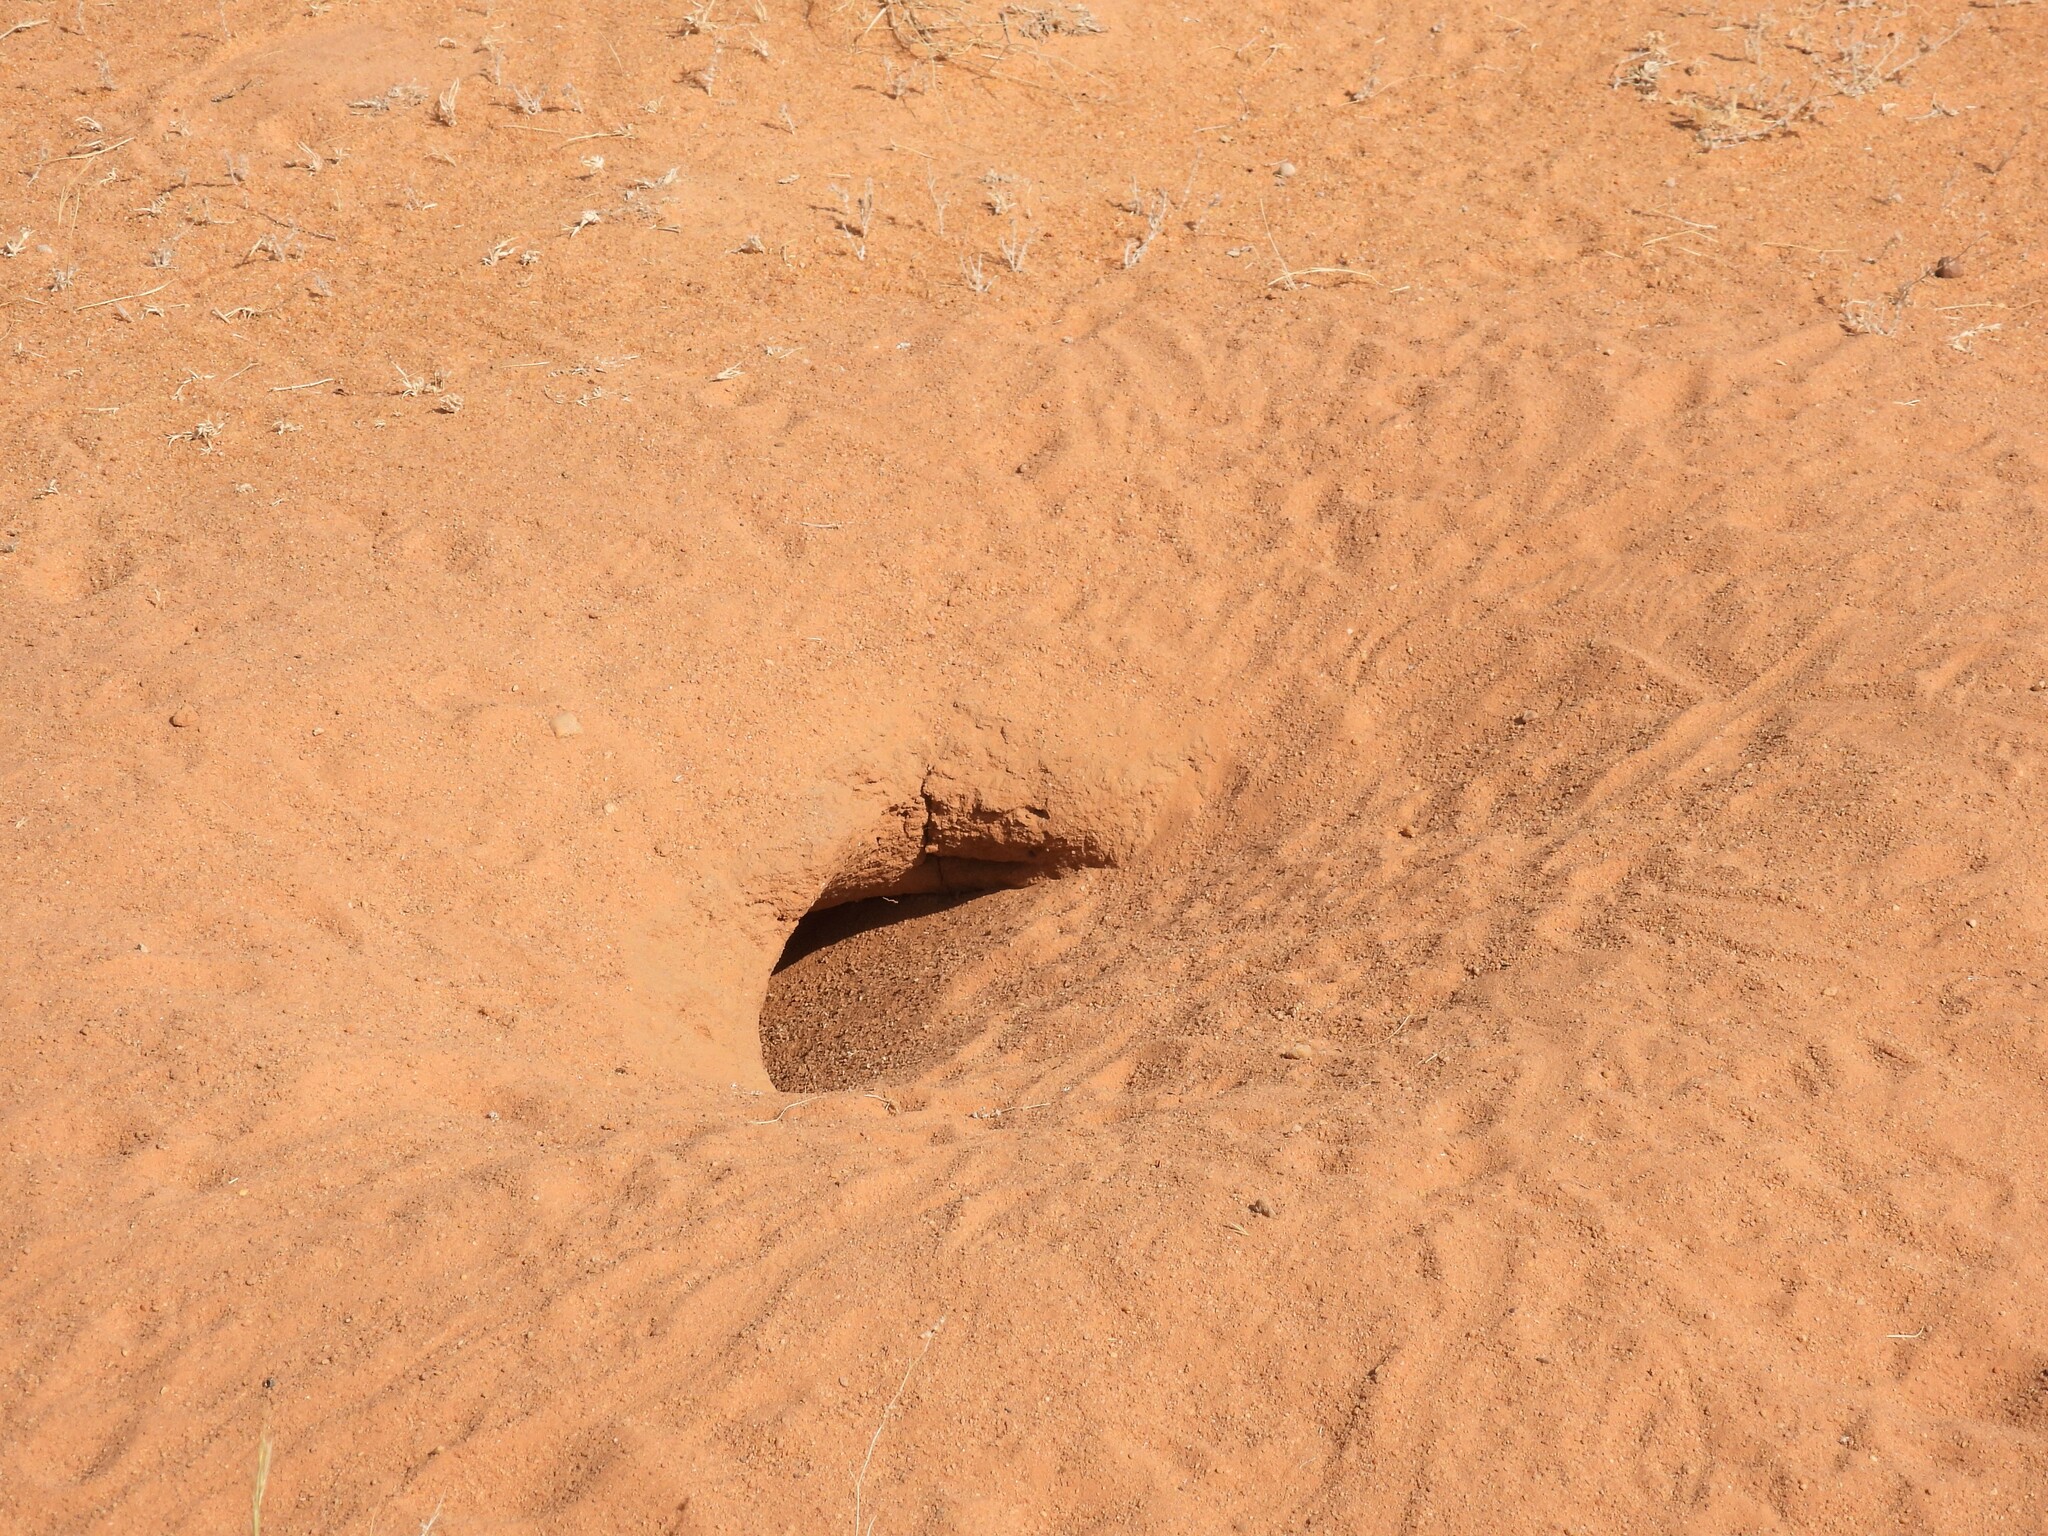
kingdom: Animalia
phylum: Chordata
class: Squamata
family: Agamidae
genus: Uromastyx
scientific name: Uromastyx aegyptia
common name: Egyptian mastigure
